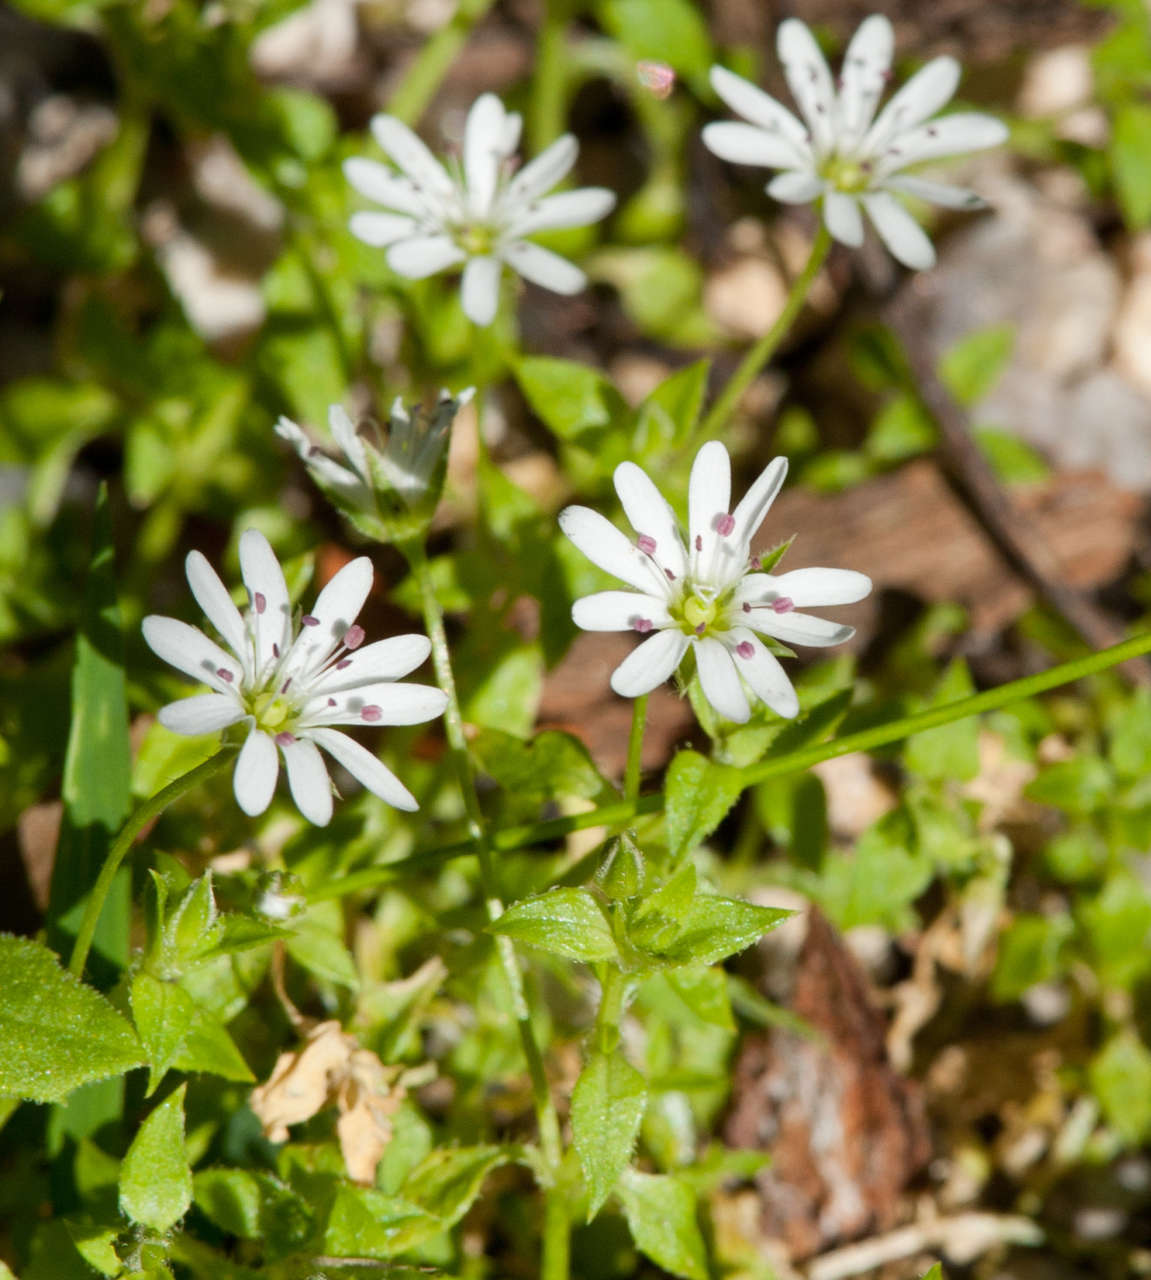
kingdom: Plantae
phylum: Tracheophyta
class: Magnoliopsida
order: Caryophyllales
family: Caryophyllaceae
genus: Stellaria
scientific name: Stellaria flaccida
